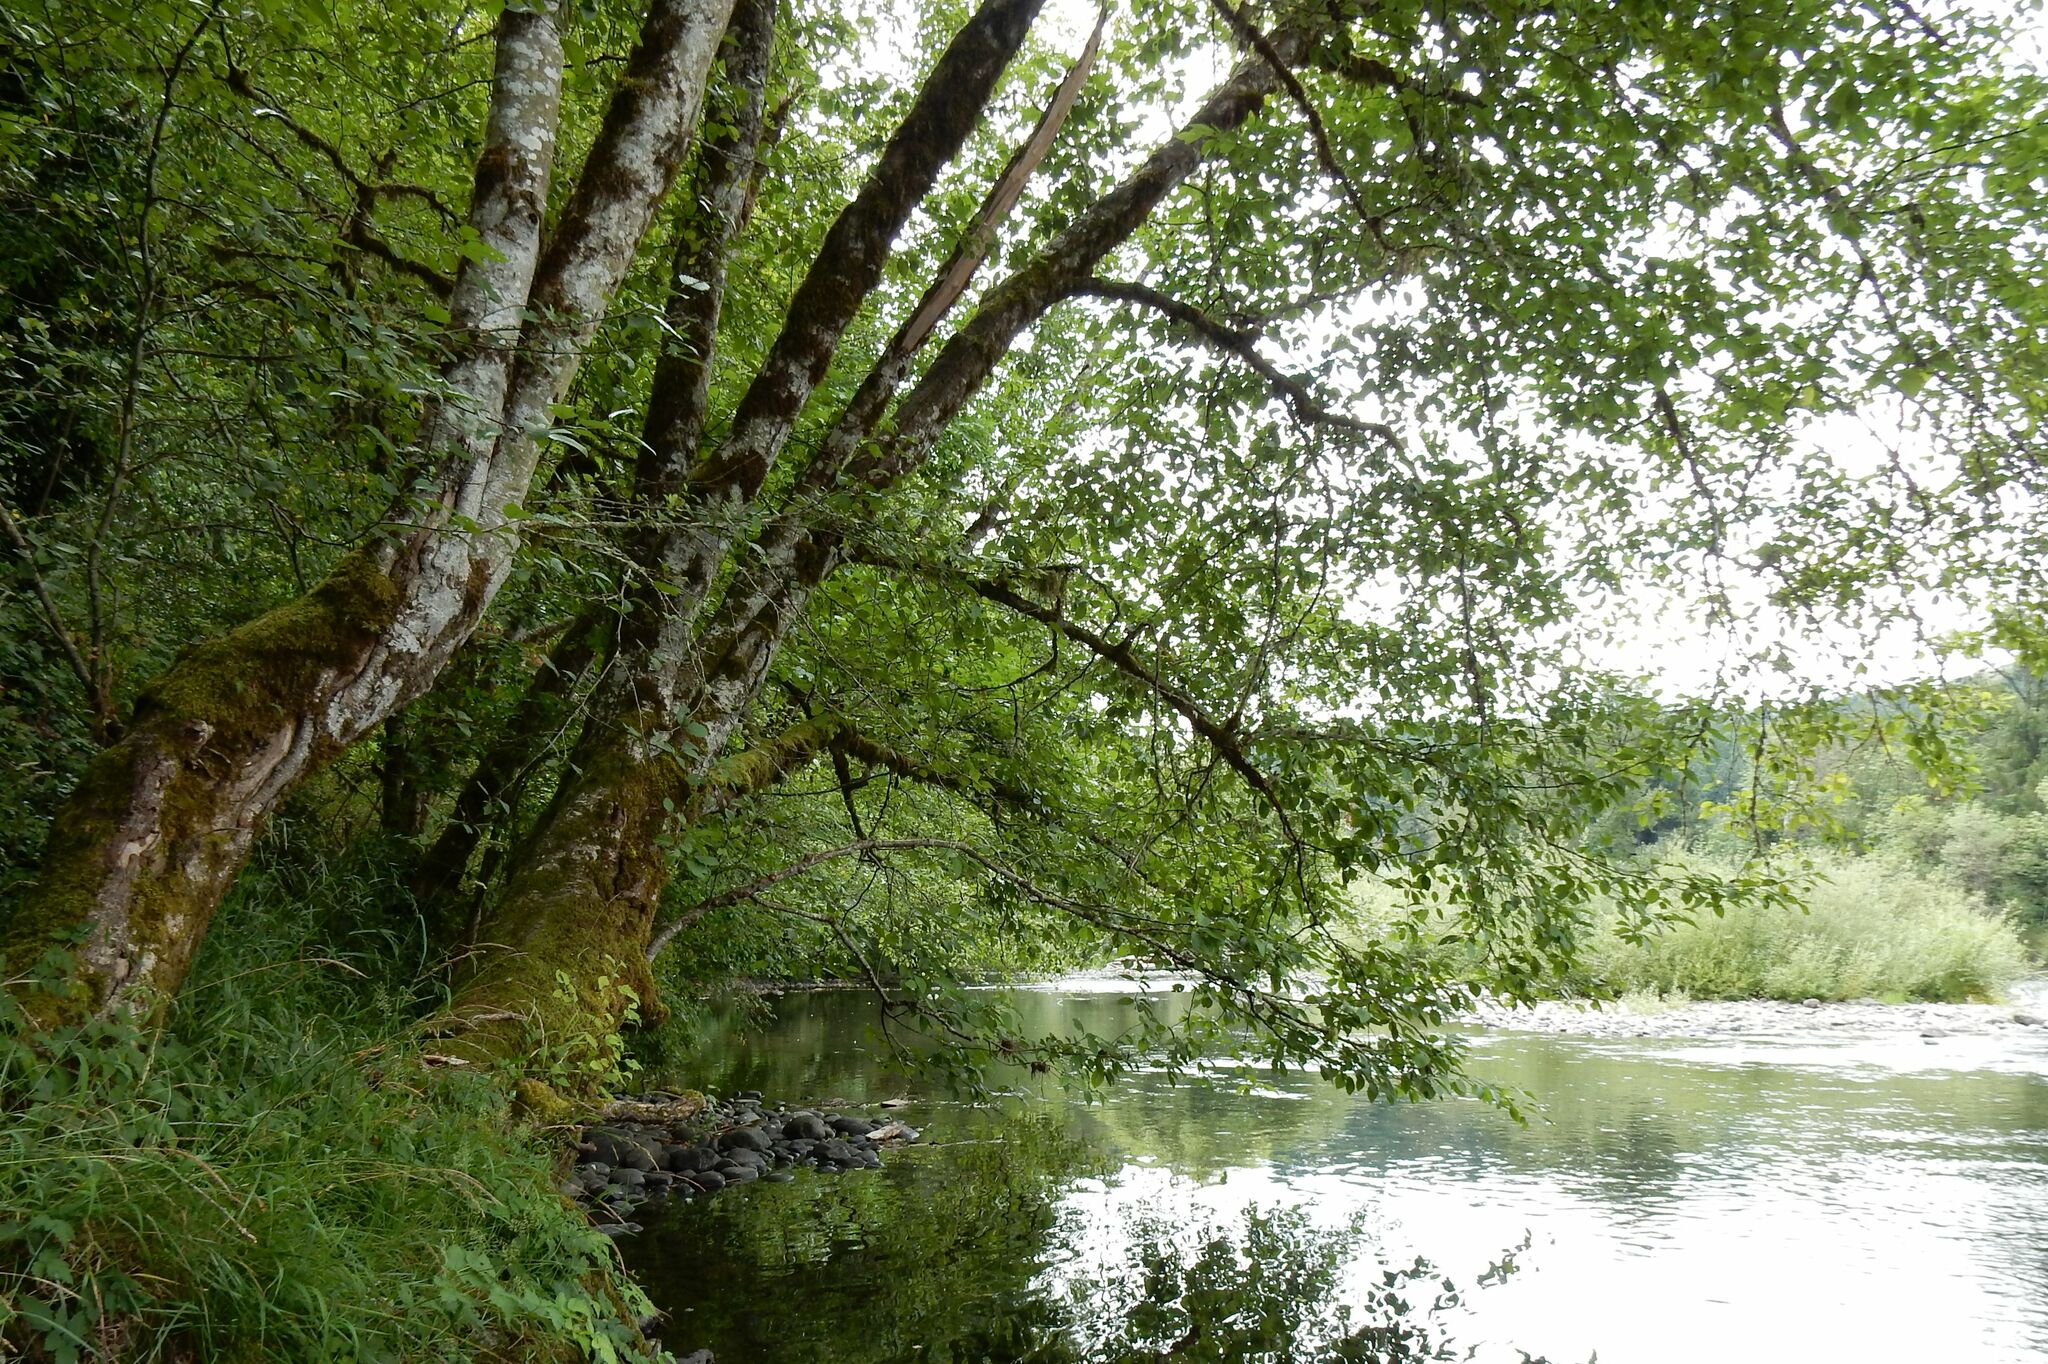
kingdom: Plantae
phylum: Tracheophyta
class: Magnoliopsida
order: Fagales
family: Betulaceae
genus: Alnus
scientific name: Alnus rubra
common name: Red alder
